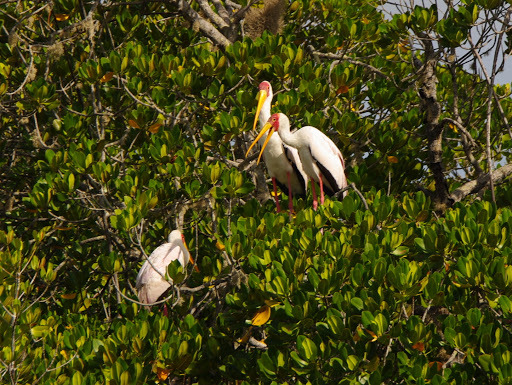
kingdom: Animalia
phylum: Chordata
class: Aves
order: Ciconiiformes
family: Ciconiidae
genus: Mycteria
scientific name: Mycteria ibis
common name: Yellow-billed stork
